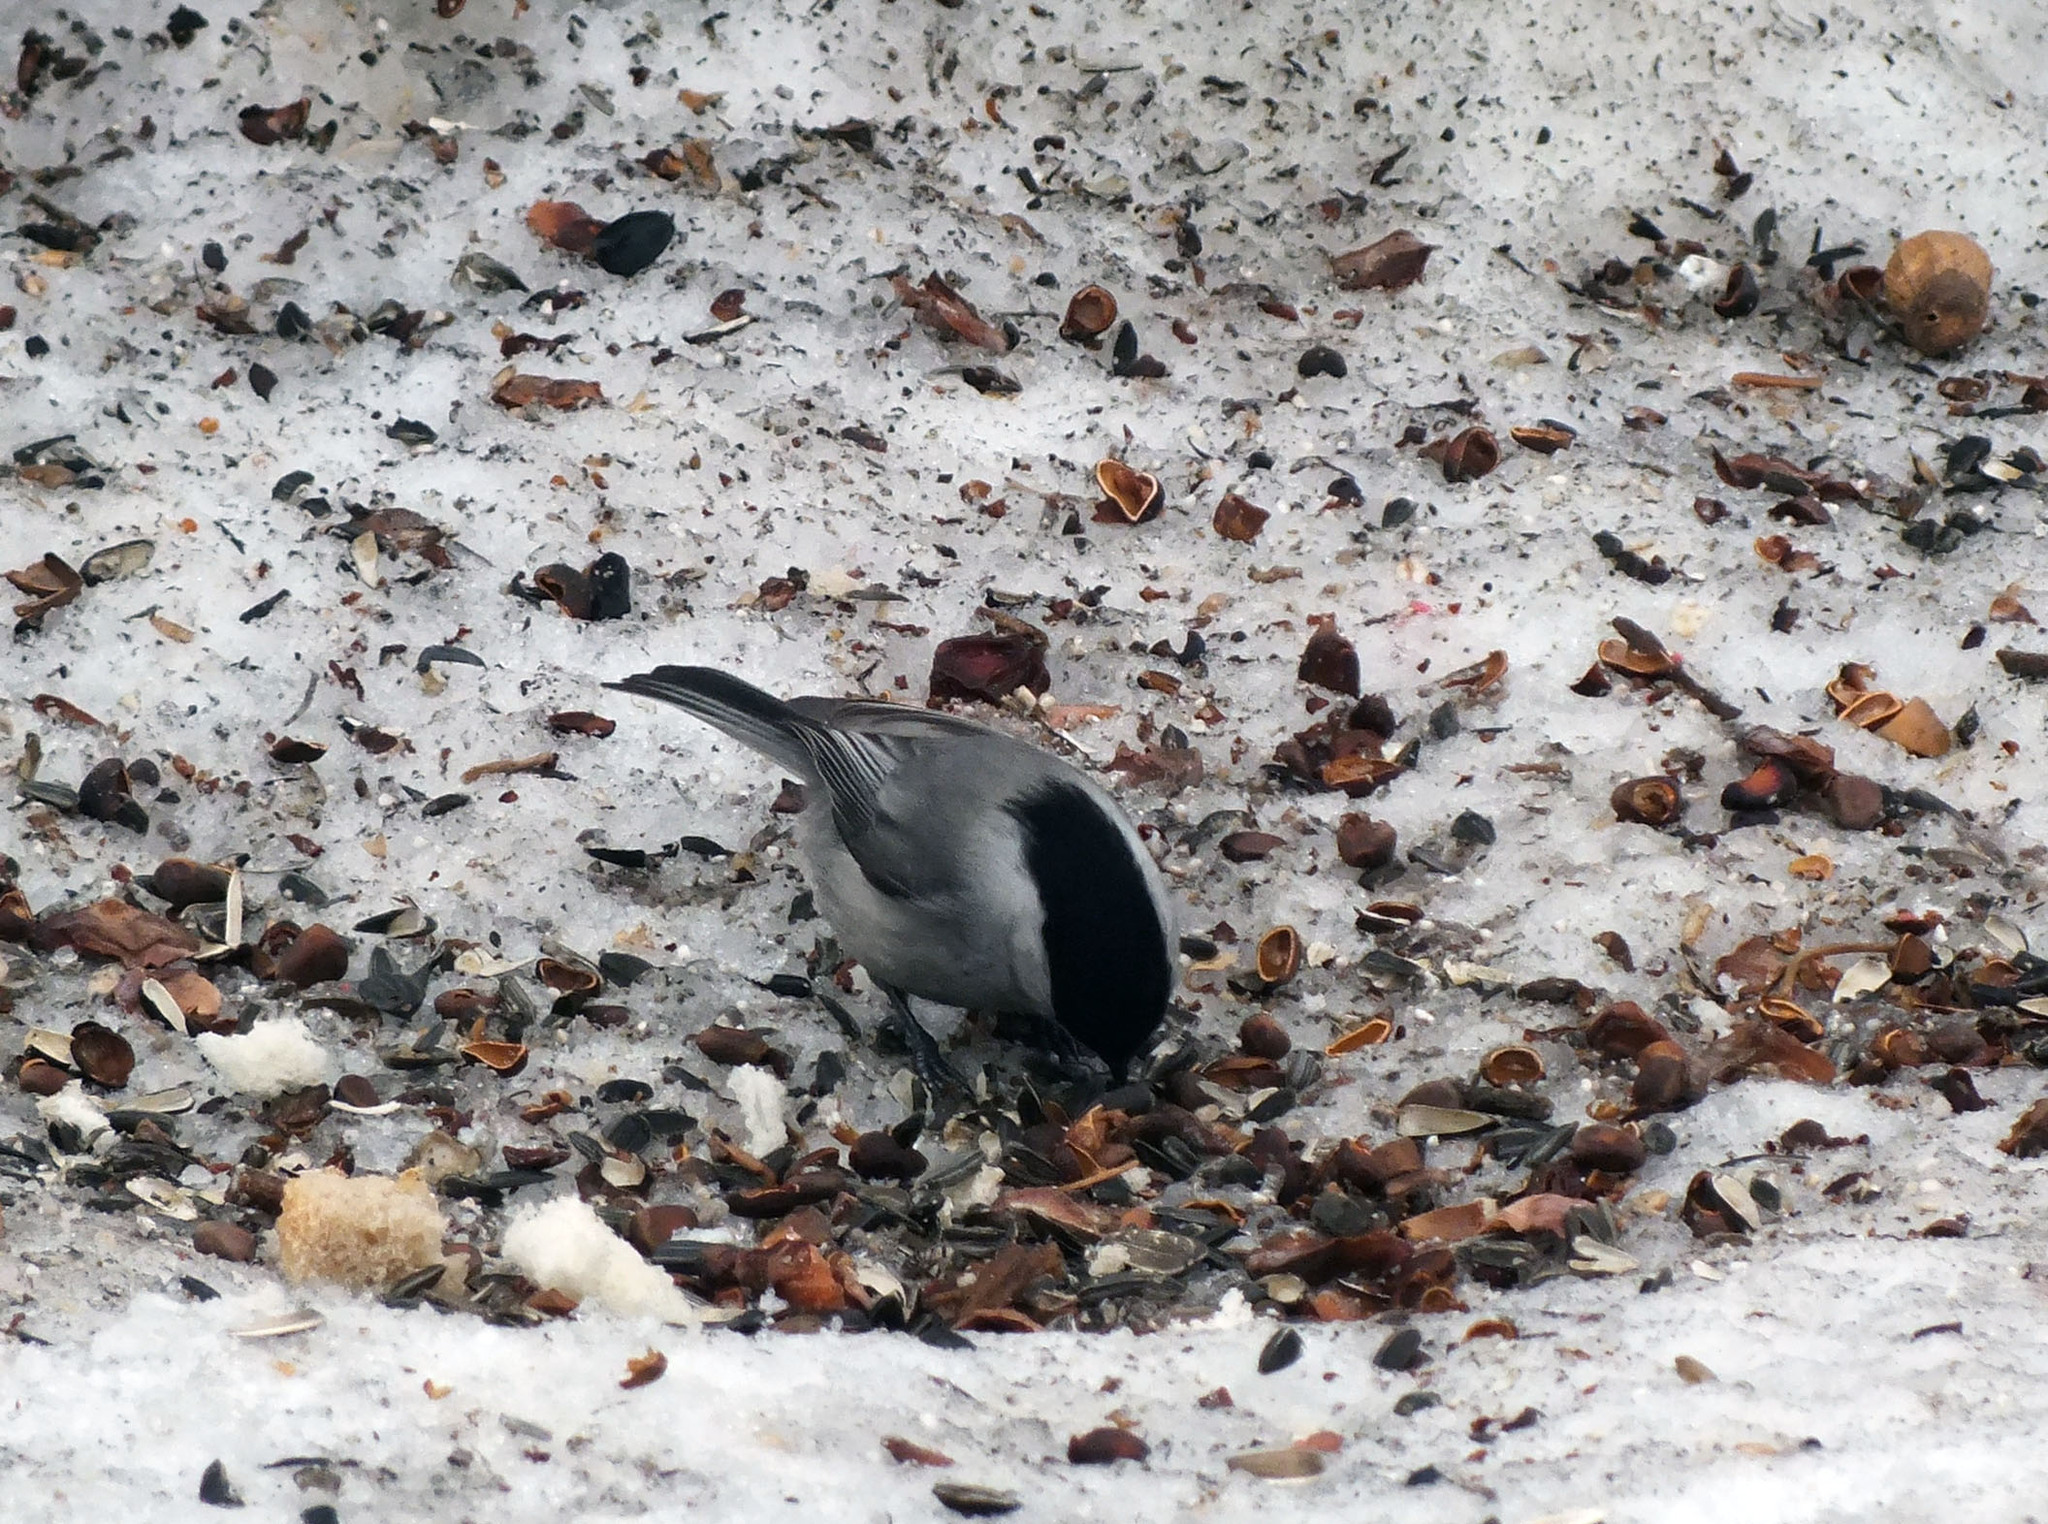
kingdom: Animalia
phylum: Chordata
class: Aves
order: Passeriformes
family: Paridae
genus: Poecile
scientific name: Poecile montanus
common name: Willow tit
